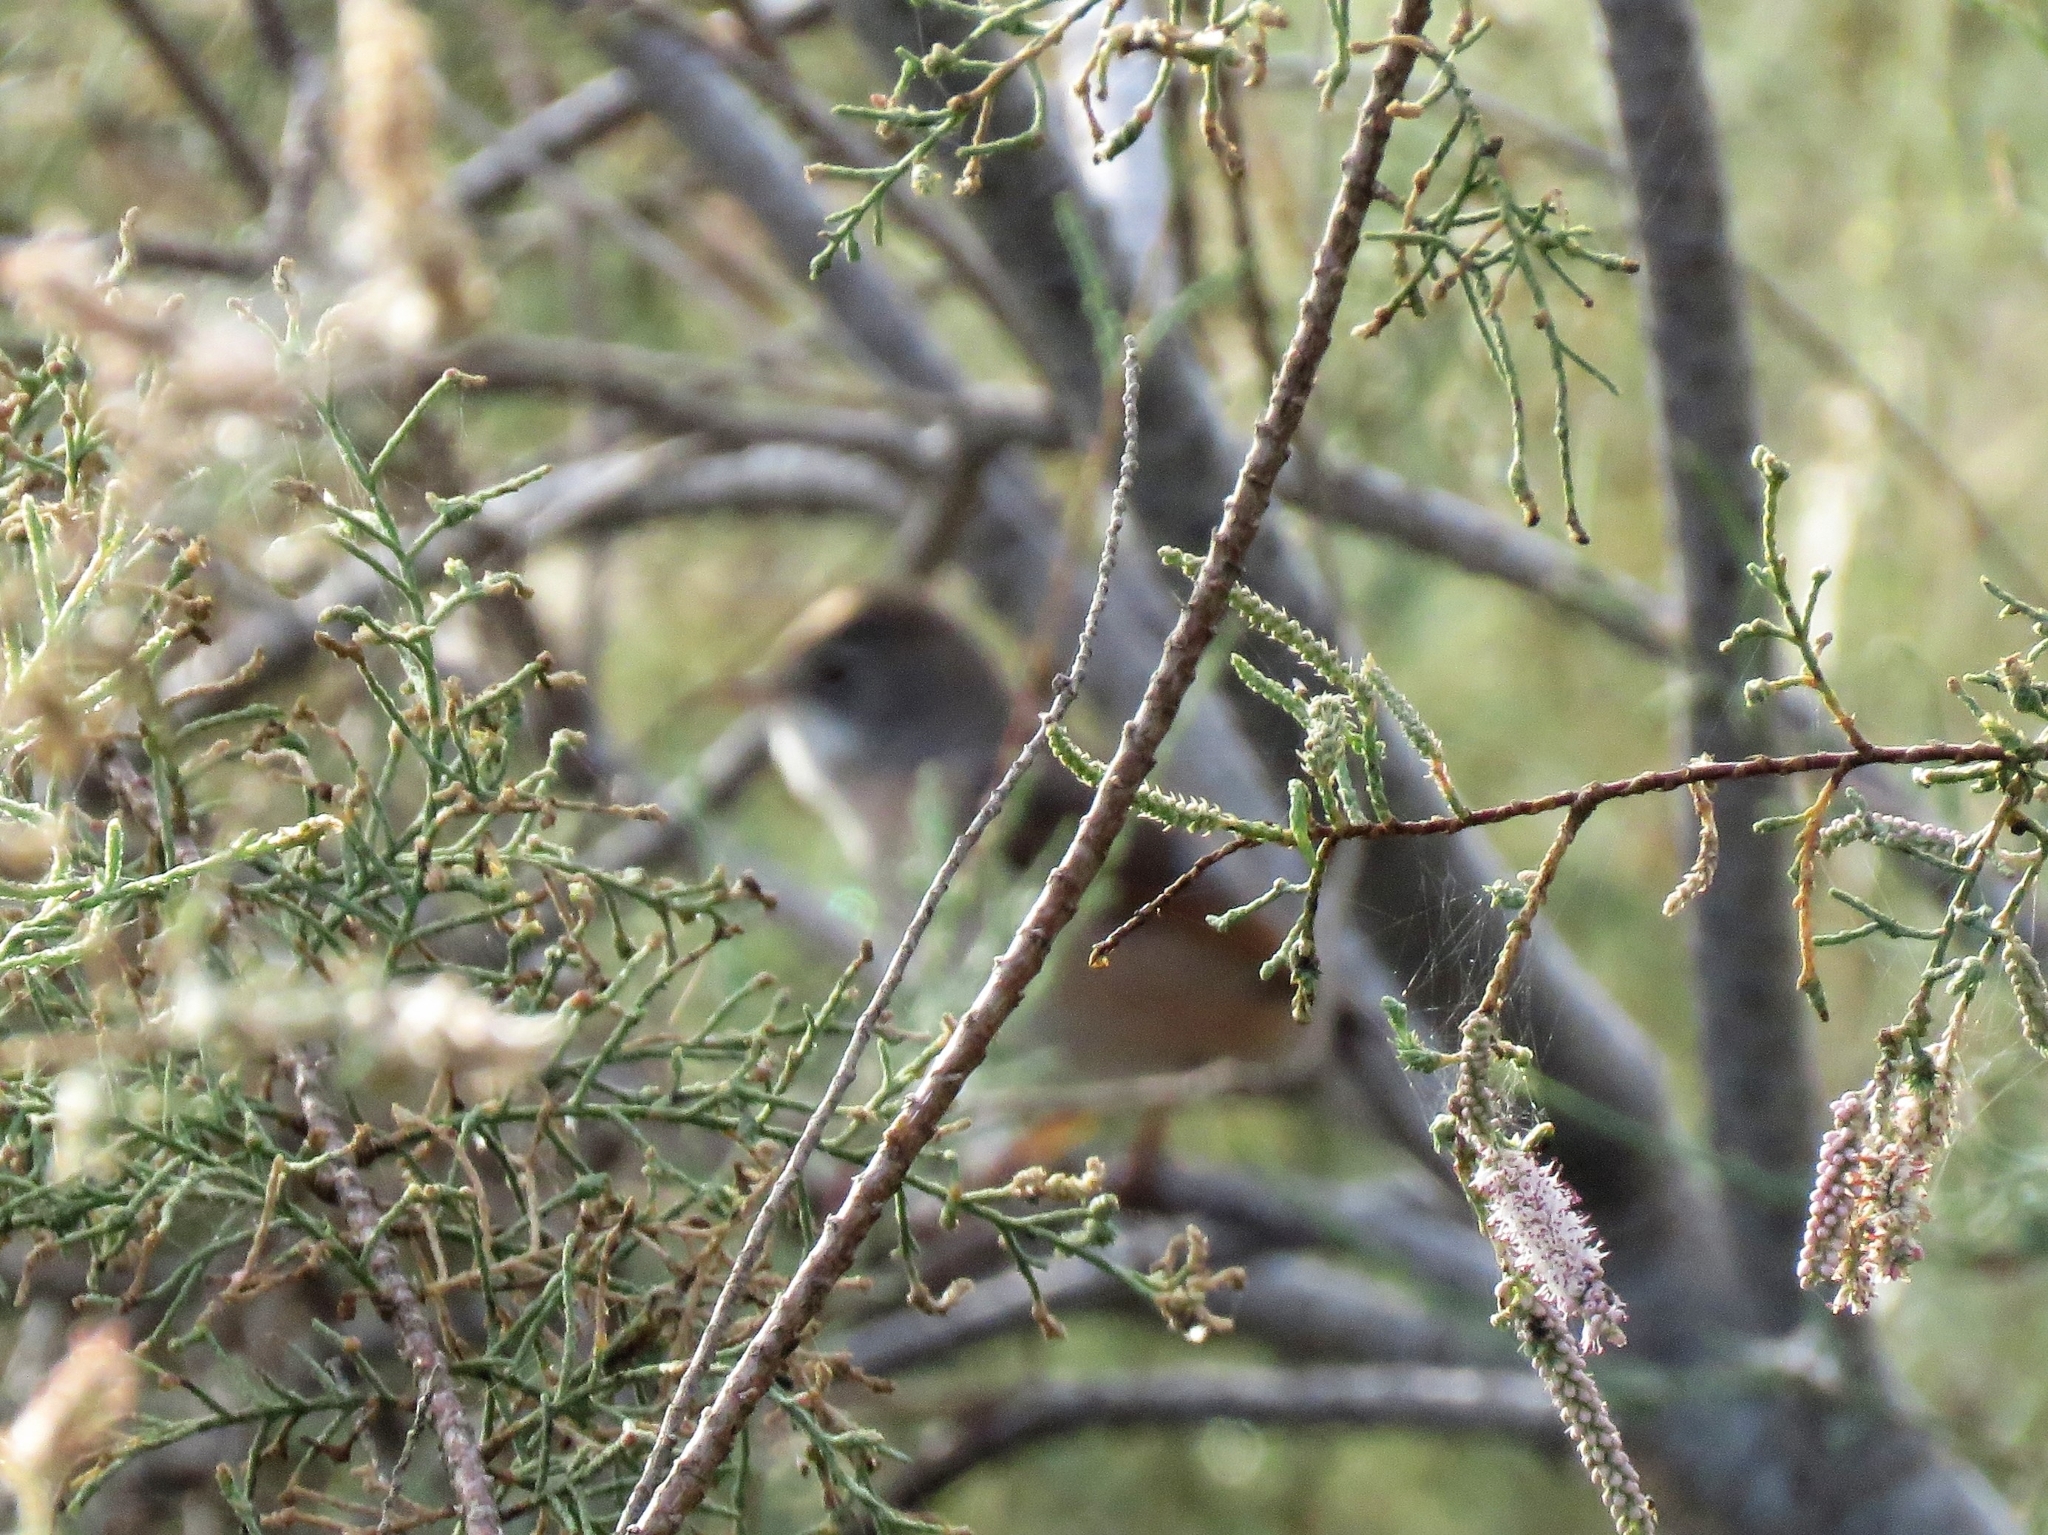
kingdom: Animalia
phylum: Chordata
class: Aves
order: Passeriformes
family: Sylviidae
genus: Sylvia
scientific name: Sylvia conspicillata
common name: Spectacled warbler
